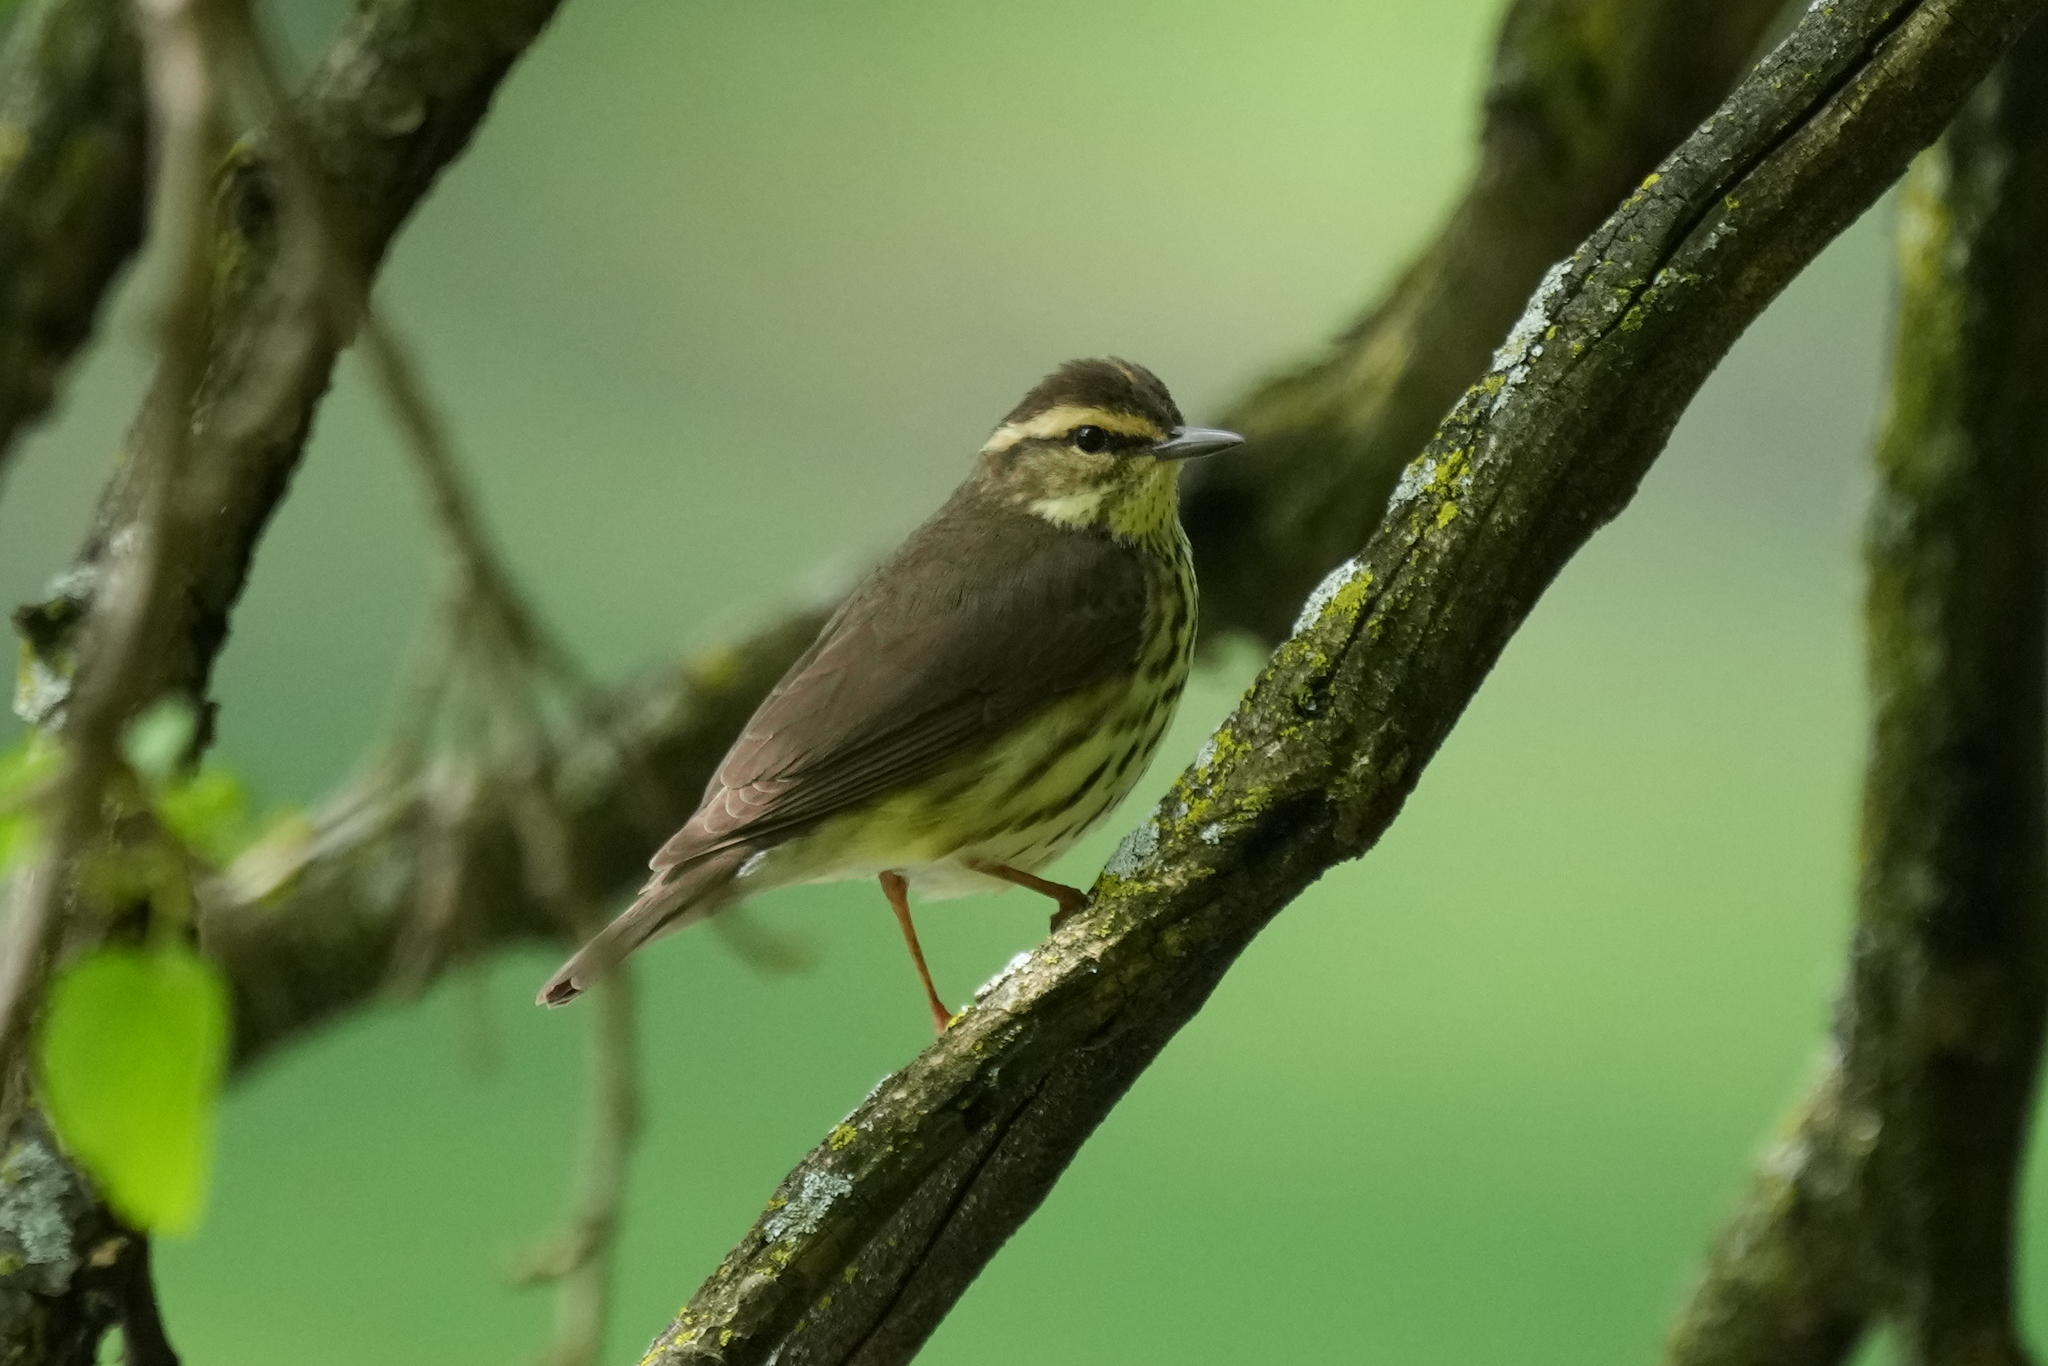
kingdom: Animalia
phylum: Chordata
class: Aves
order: Passeriformes
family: Parulidae
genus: Parkesia
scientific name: Parkesia noveboracensis
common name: Northern waterthrush
